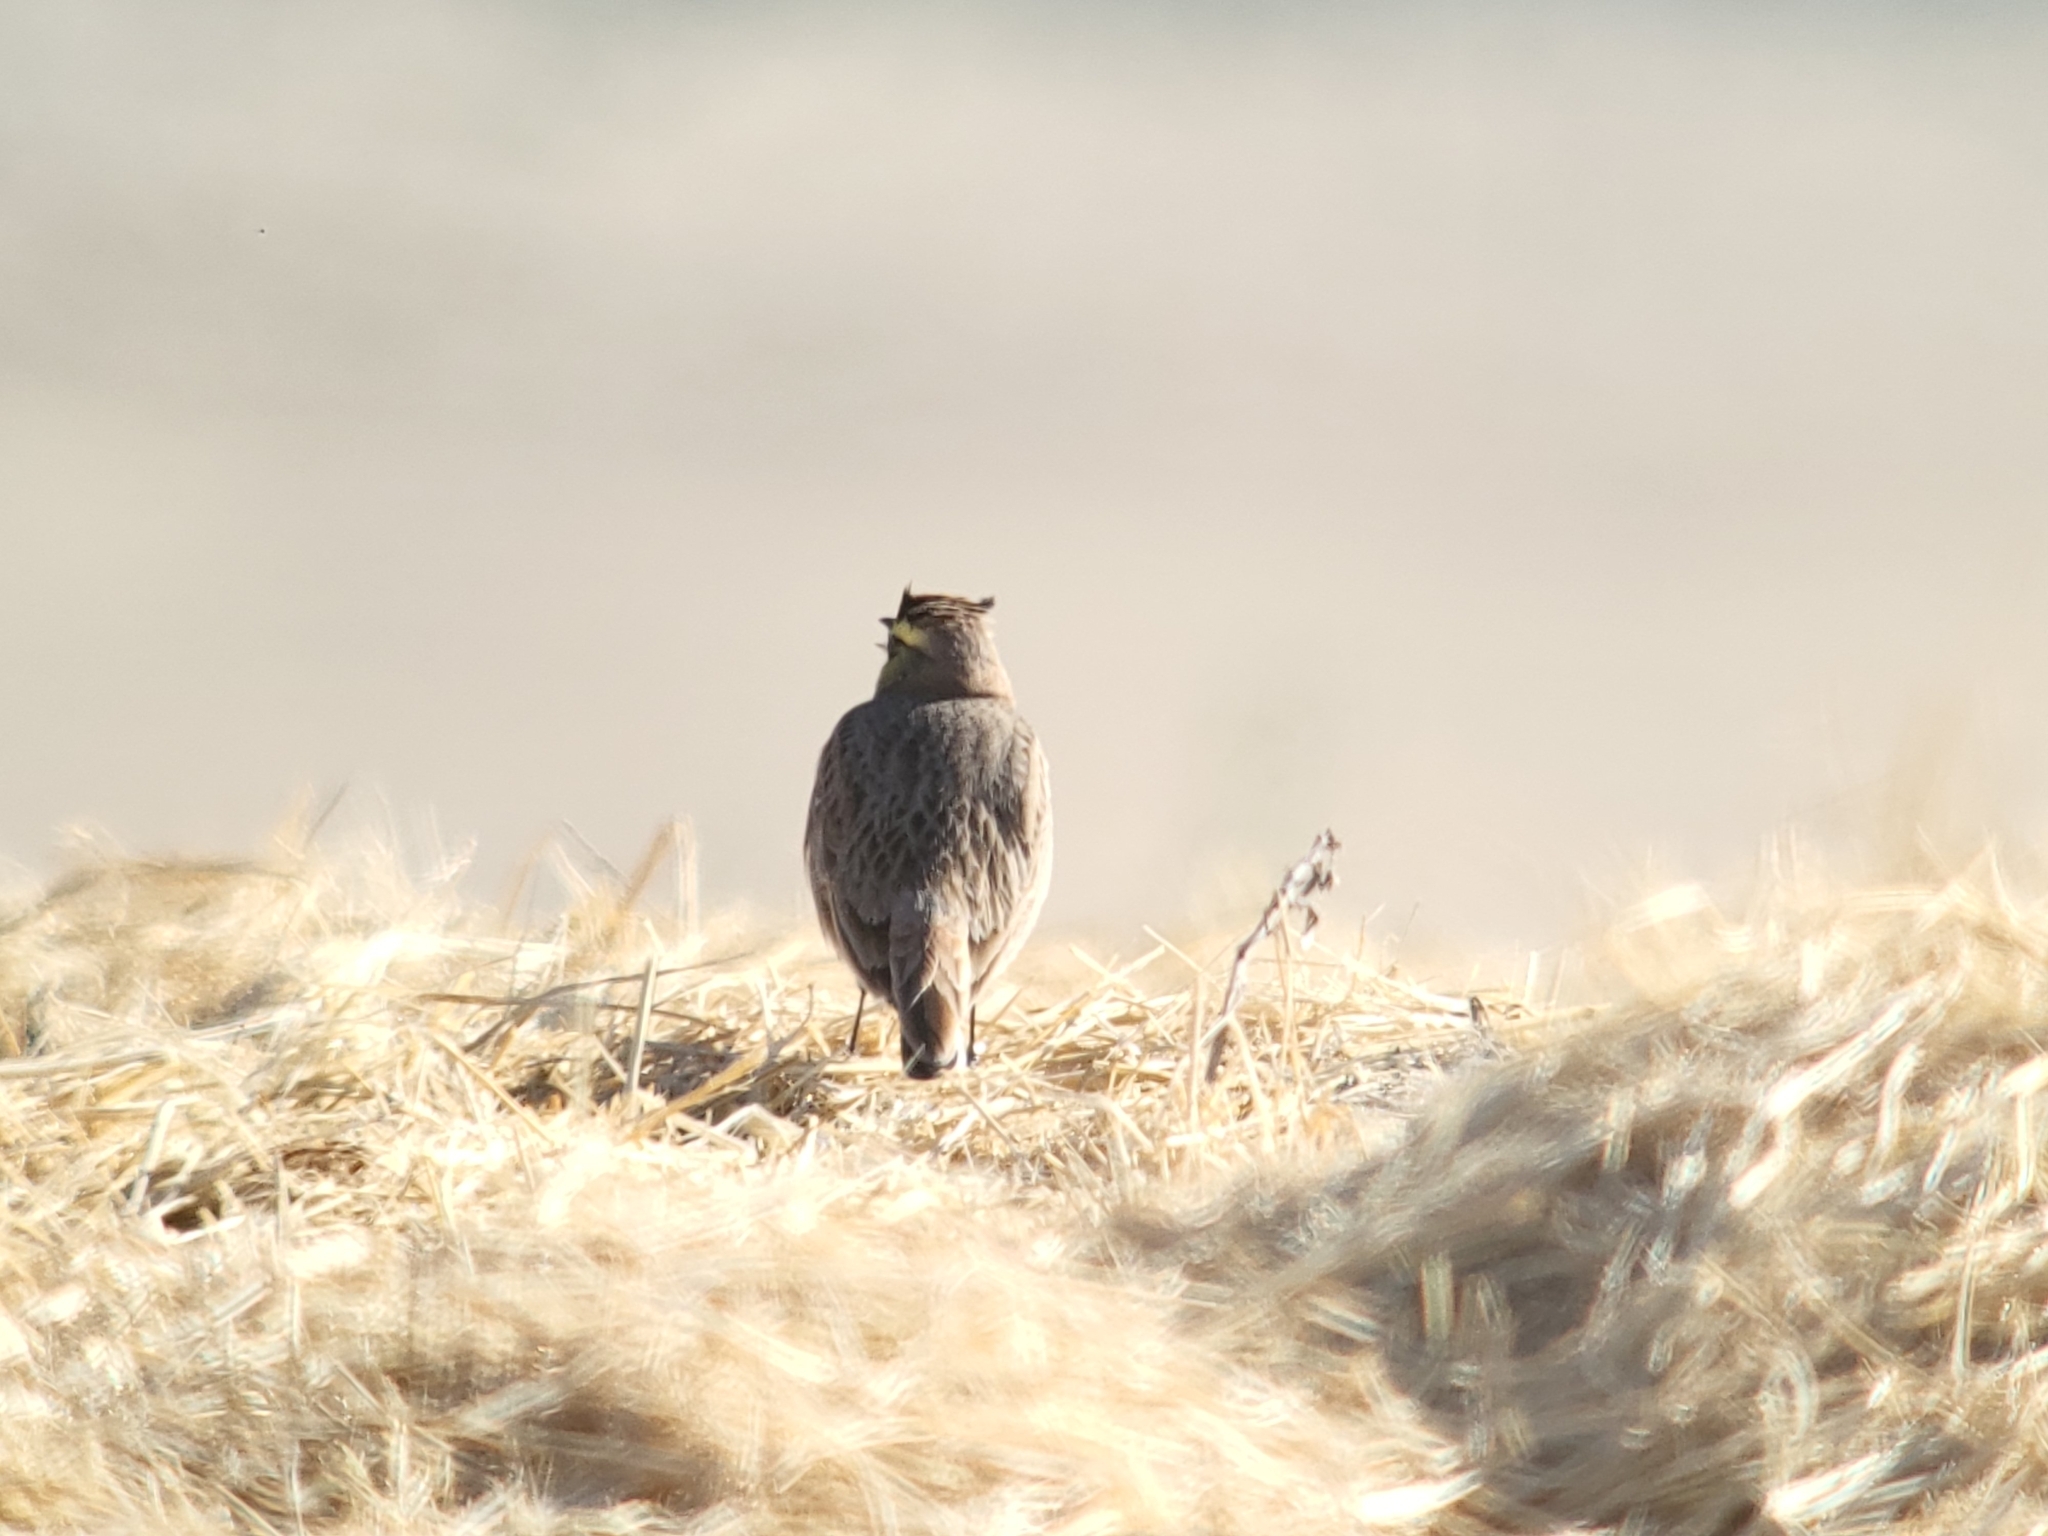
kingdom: Animalia
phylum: Chordata
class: Aves
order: Passeriformes
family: Alaudidae
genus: Eremophila
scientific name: Eremophila alpestris
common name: Horned lark
